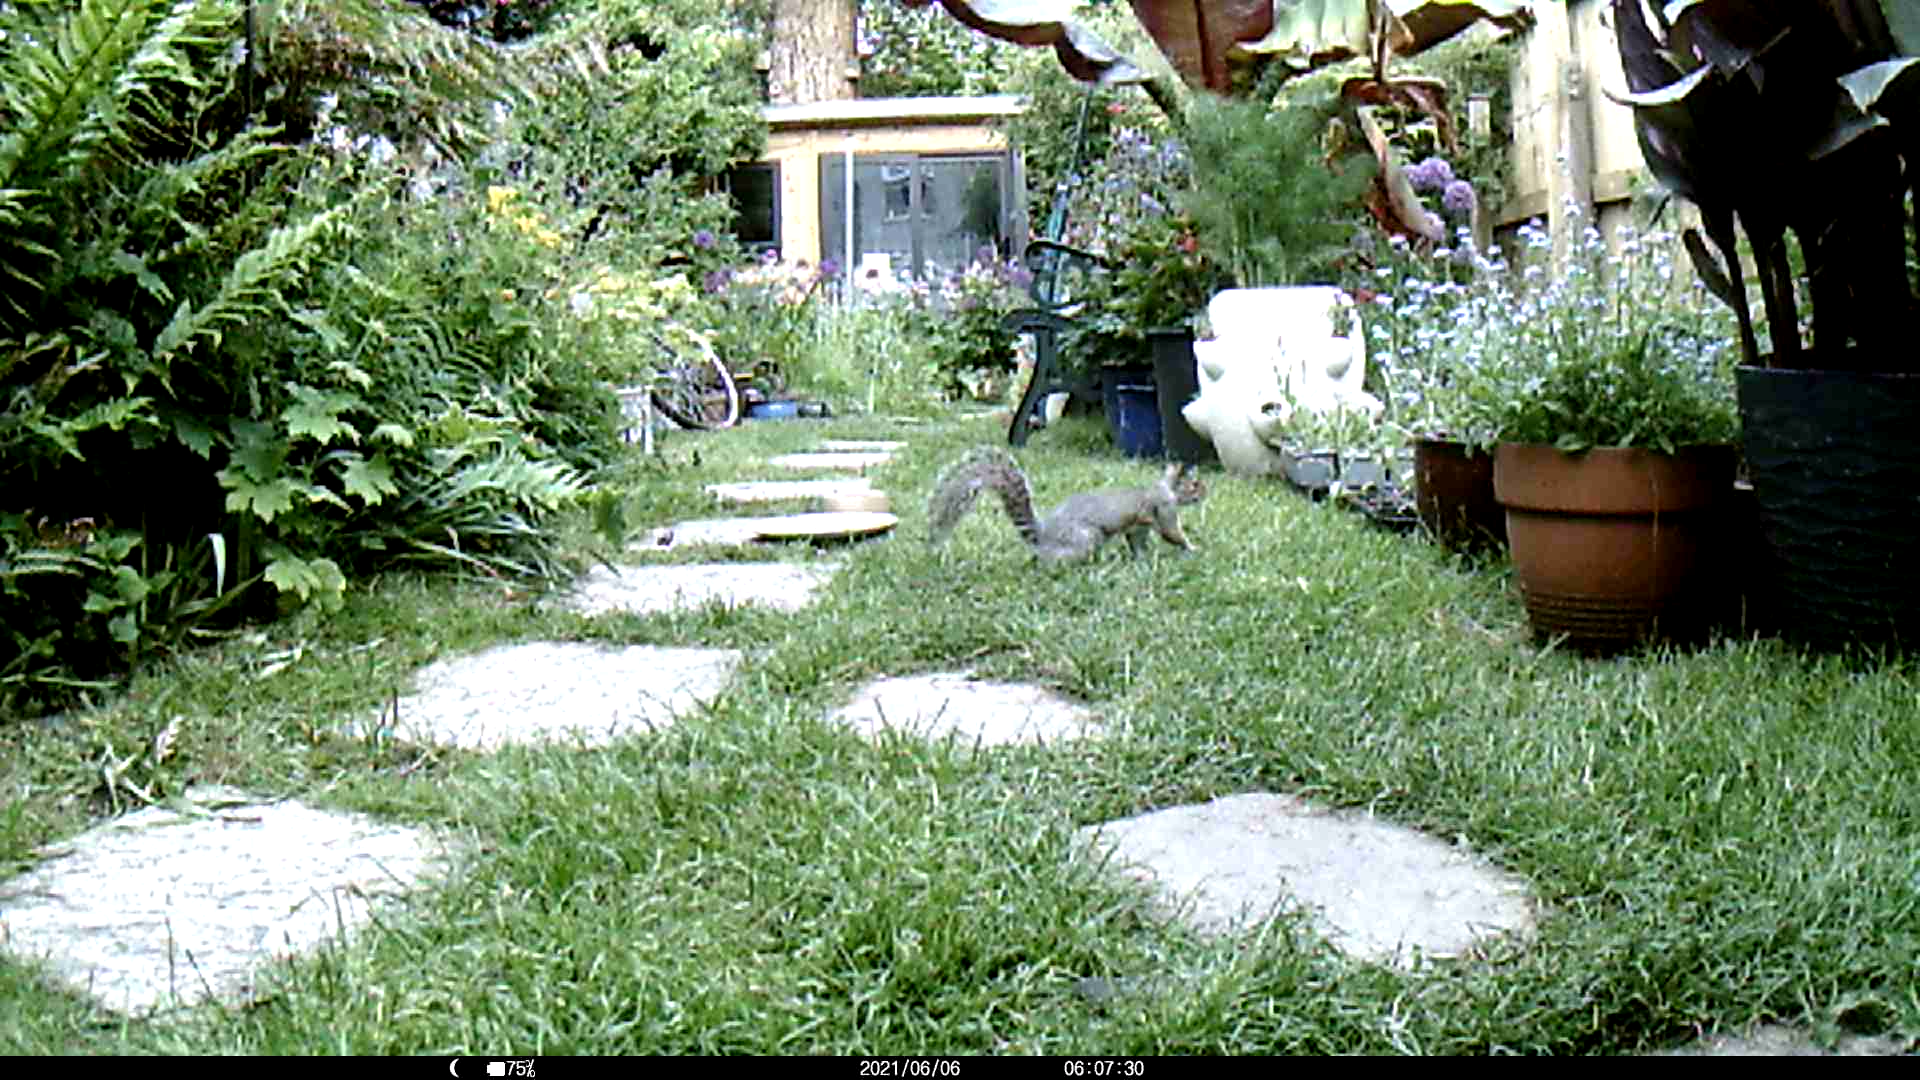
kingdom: Animalia
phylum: Chordata
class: Mammalia
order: Rodentia
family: Sciuridae
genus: Sciurus
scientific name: Sciurus carolinensis
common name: Eastern gray squirrel
